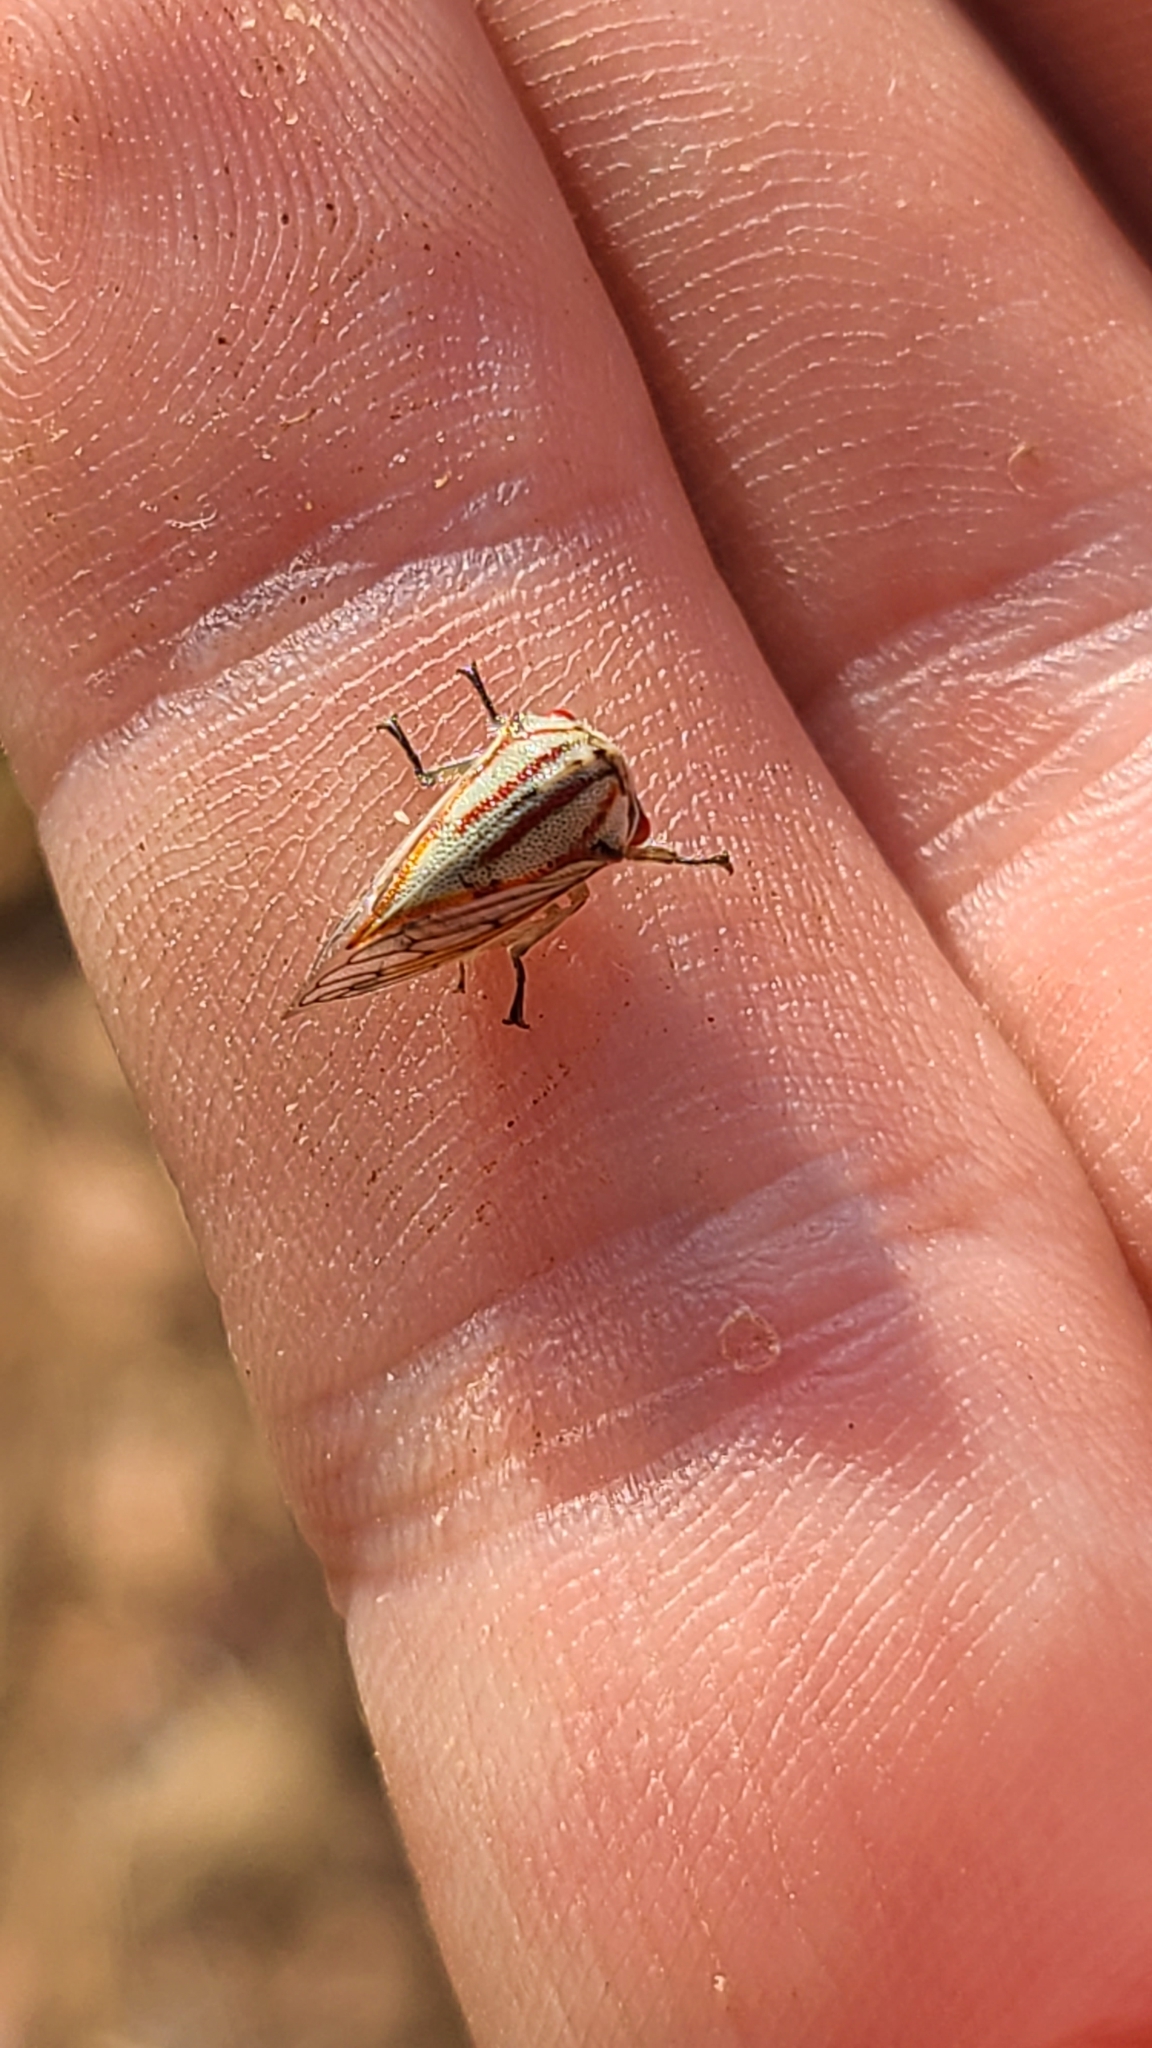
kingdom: Animalia
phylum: Arthropoda
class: Insecta
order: Hemiptera
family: Membracidae
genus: Platycotis
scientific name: Platycotis vittatus
